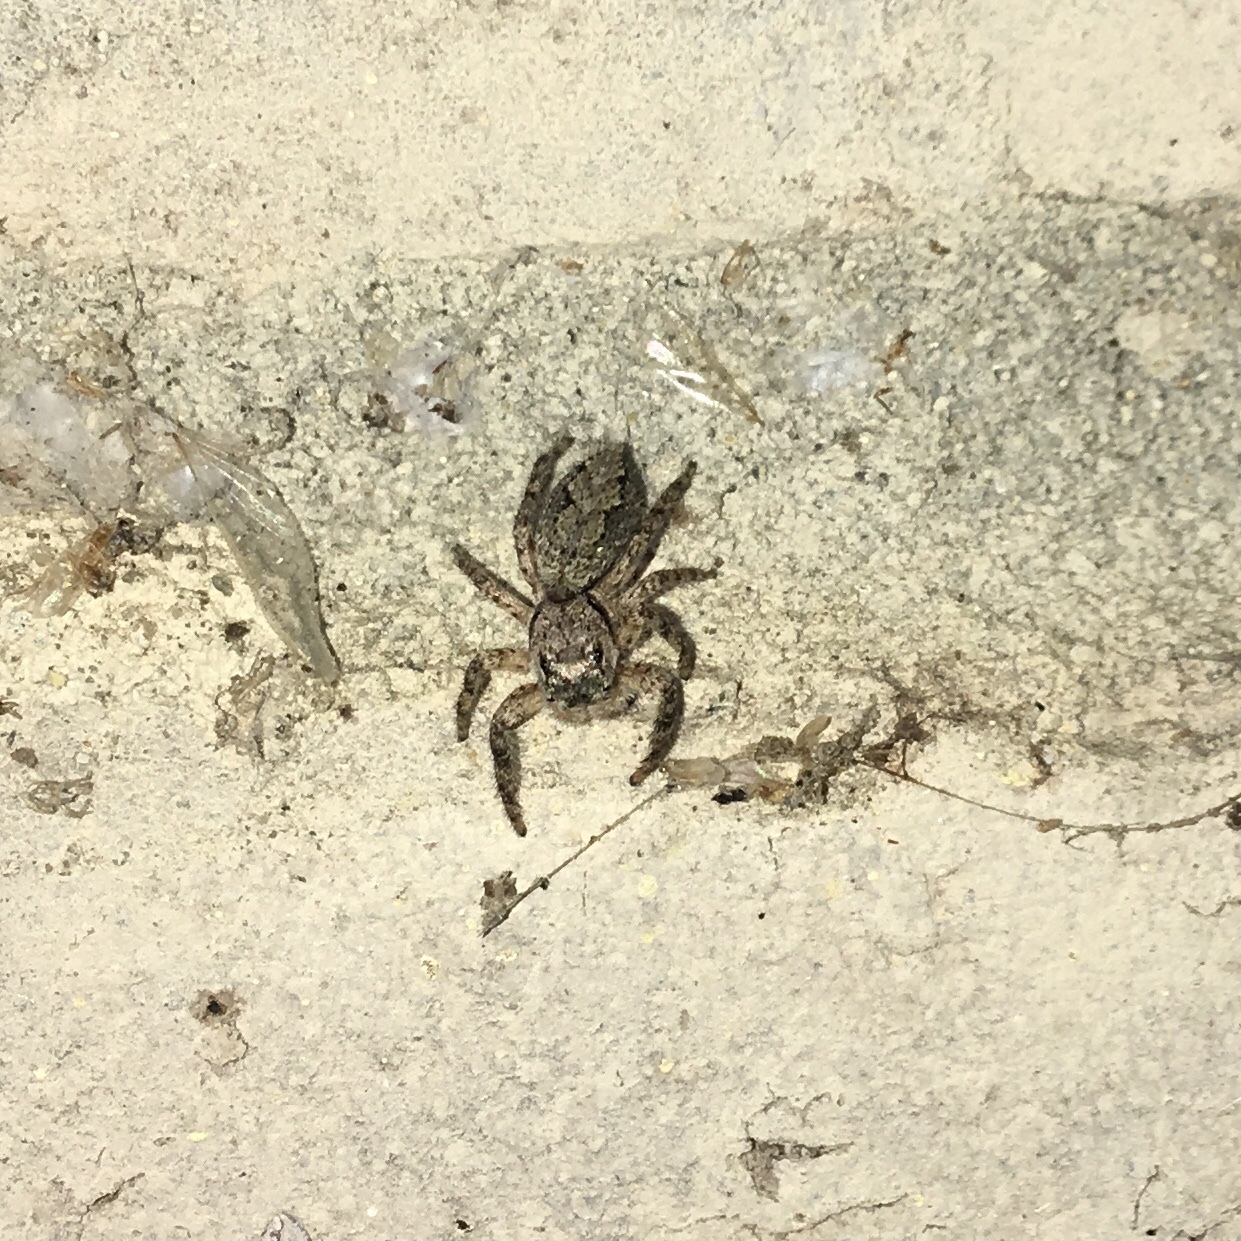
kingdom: Animalia
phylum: Arthropoda
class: Arachnida
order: Araneae
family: Salticidae
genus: Platycryptus
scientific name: Platycryptus undatus
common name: Tan jumping spider
